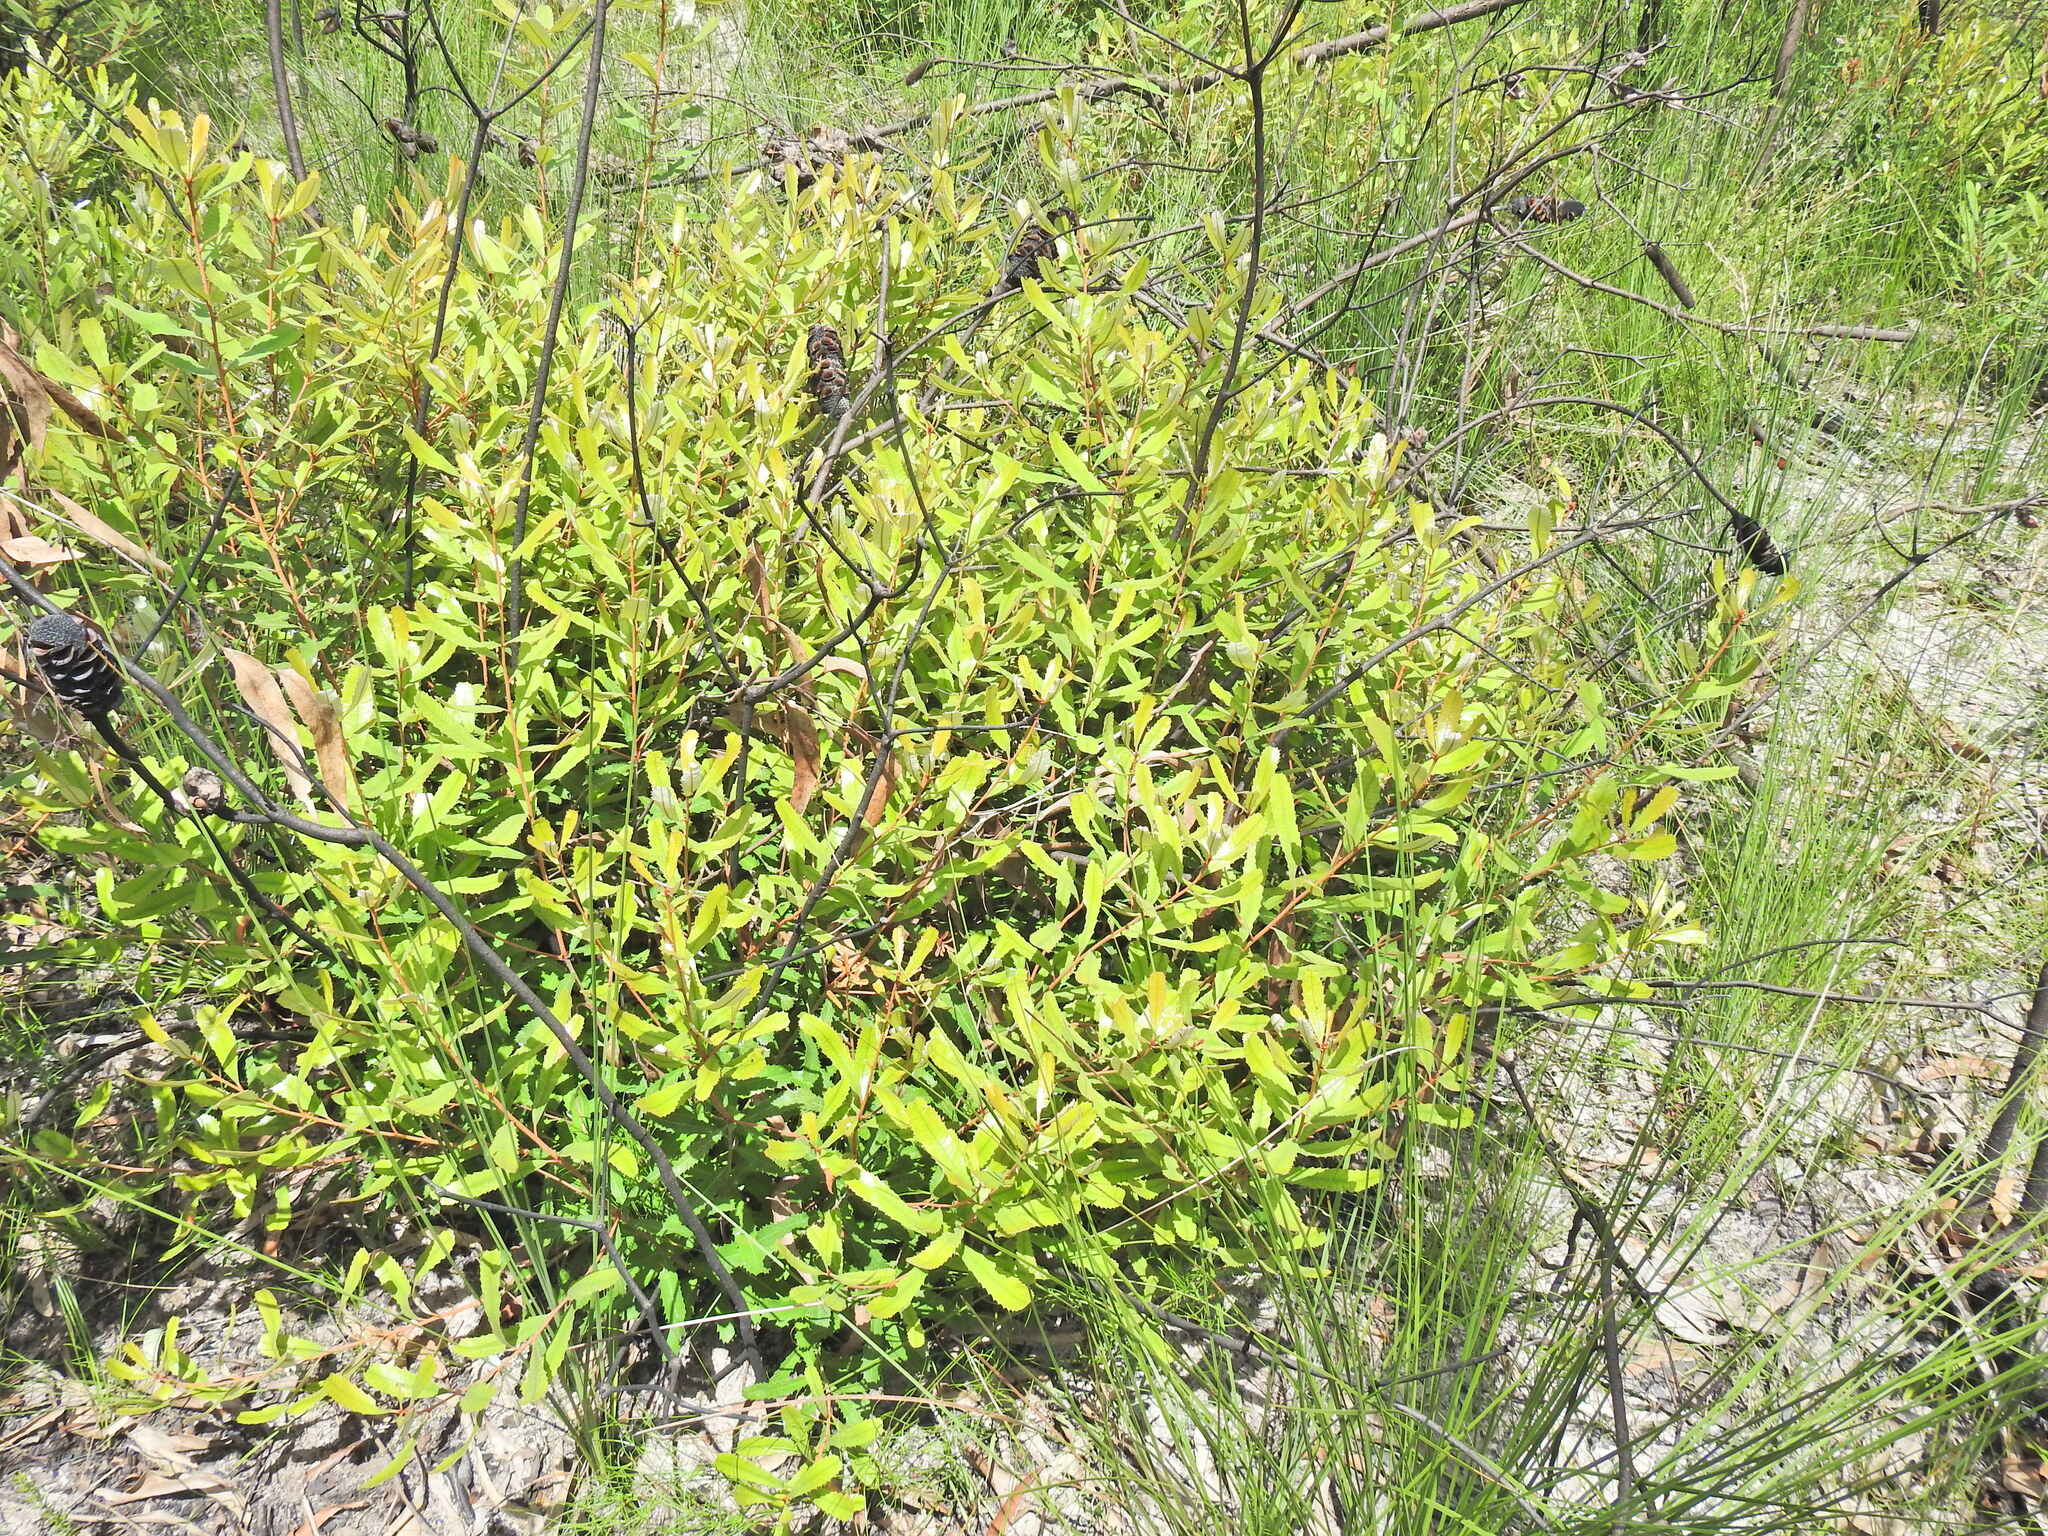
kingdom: Plantae
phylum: Tracheophyta
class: Magnoliopsida
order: Proteales
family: Proteaceae
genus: Banksia
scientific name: Banksia oblongifolia
